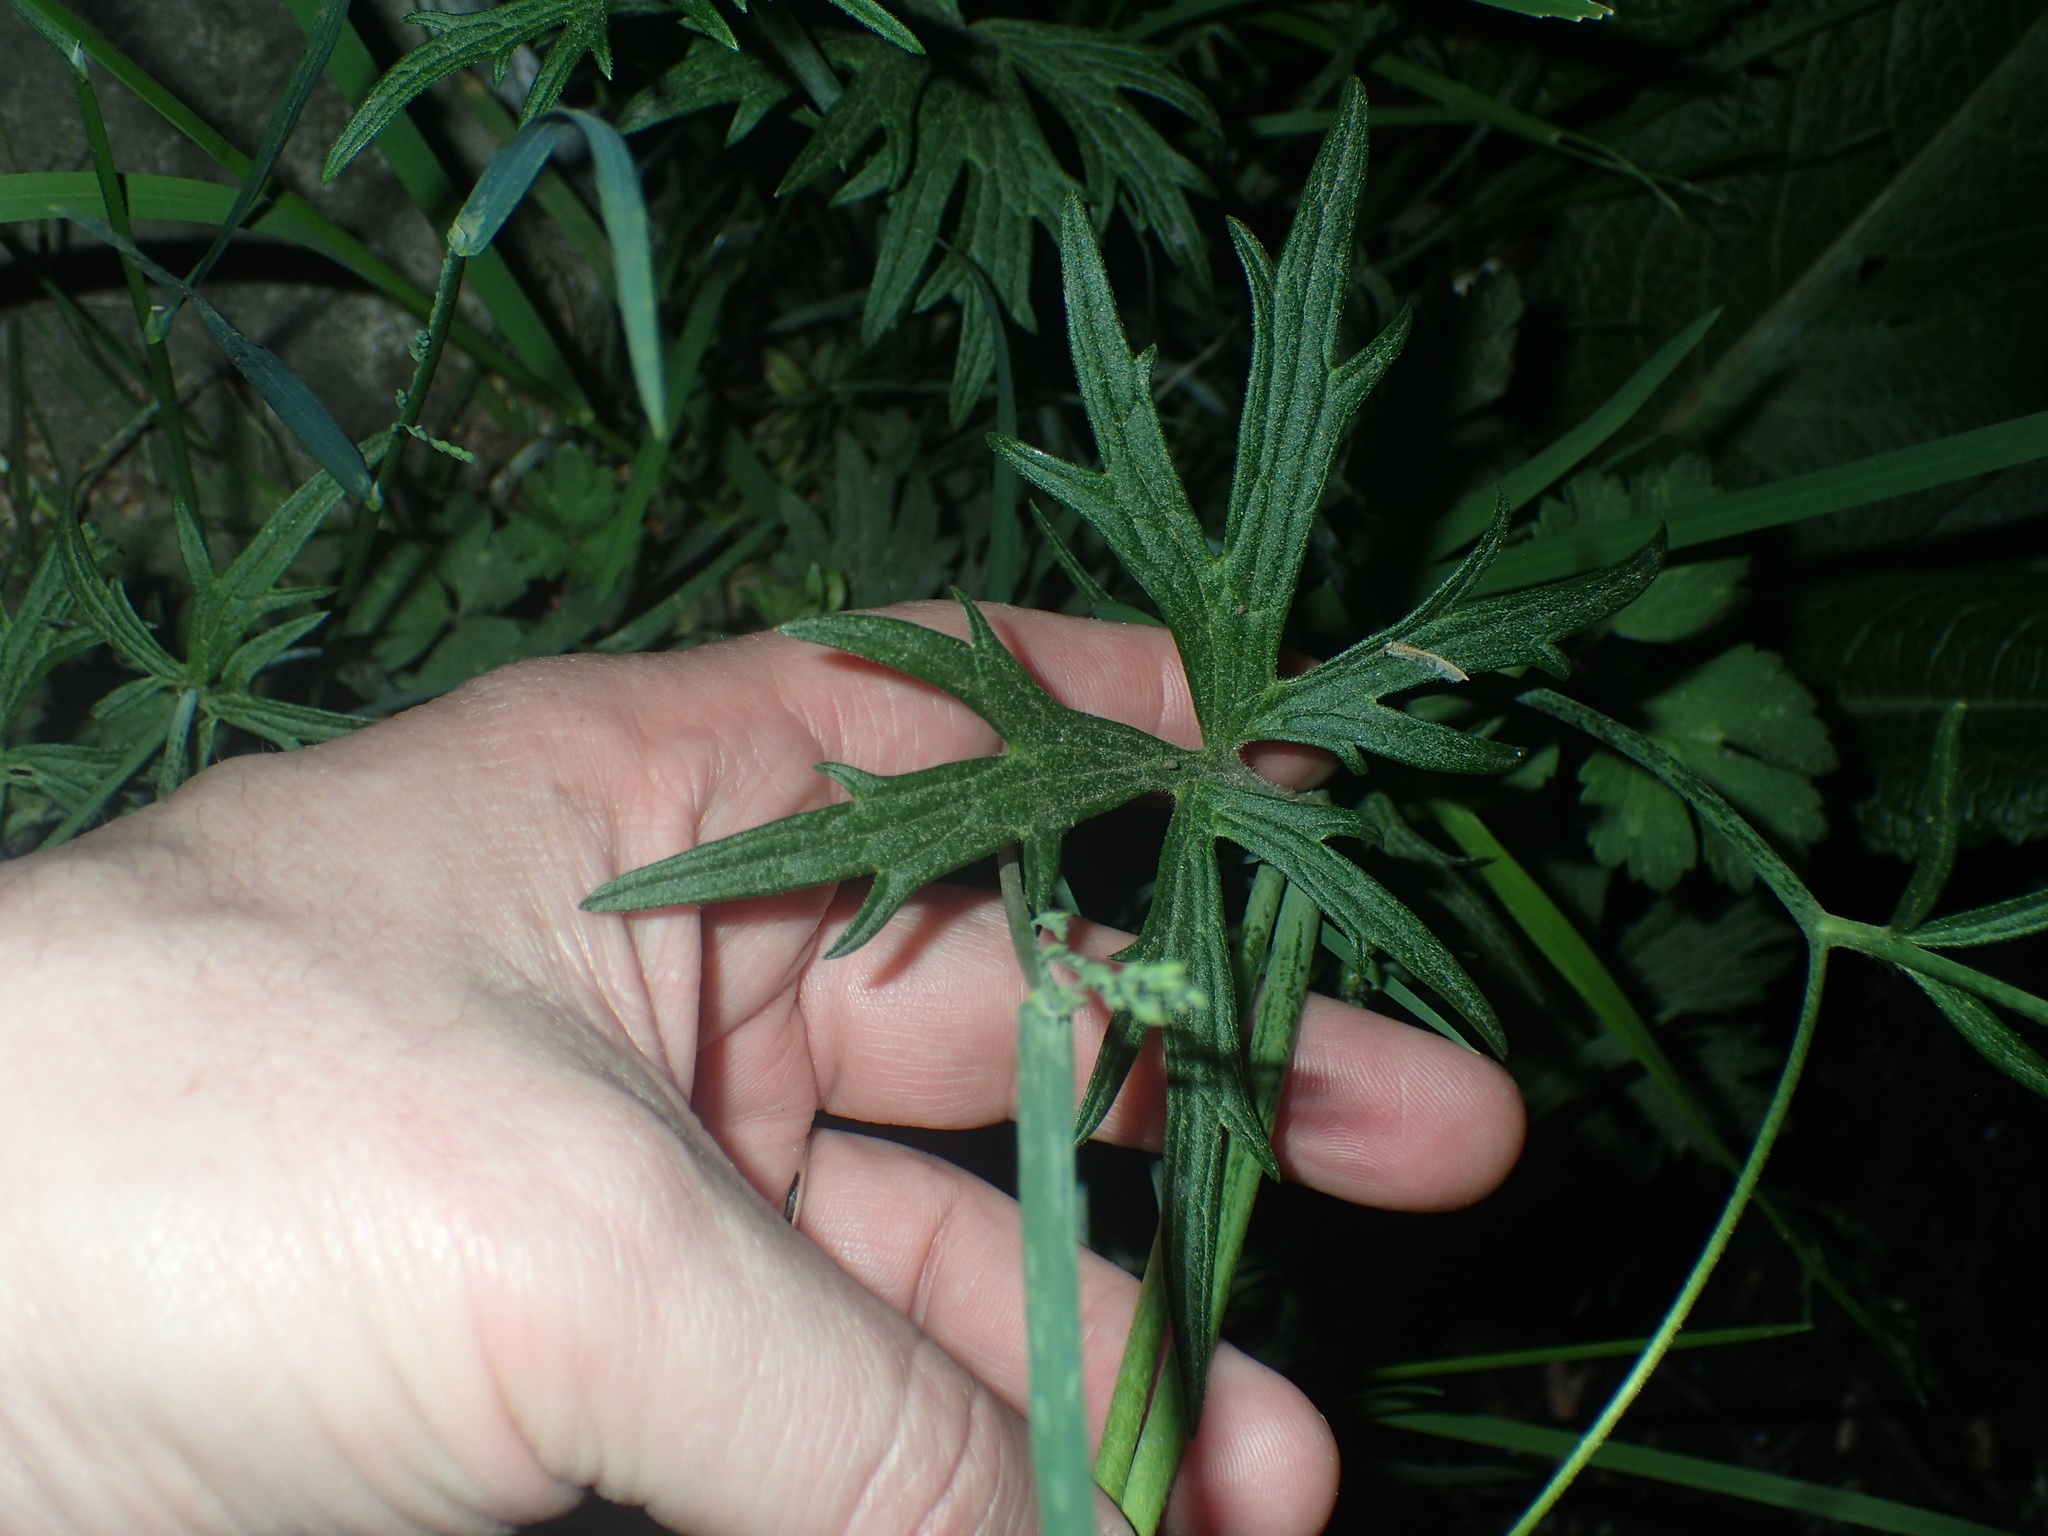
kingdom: Plantae
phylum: Tracheophyta
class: Magnoliopsida
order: Ranunculales
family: Ranunculaceae
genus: Ranunculus
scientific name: Ranunculus acris
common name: Meadow buttercup
